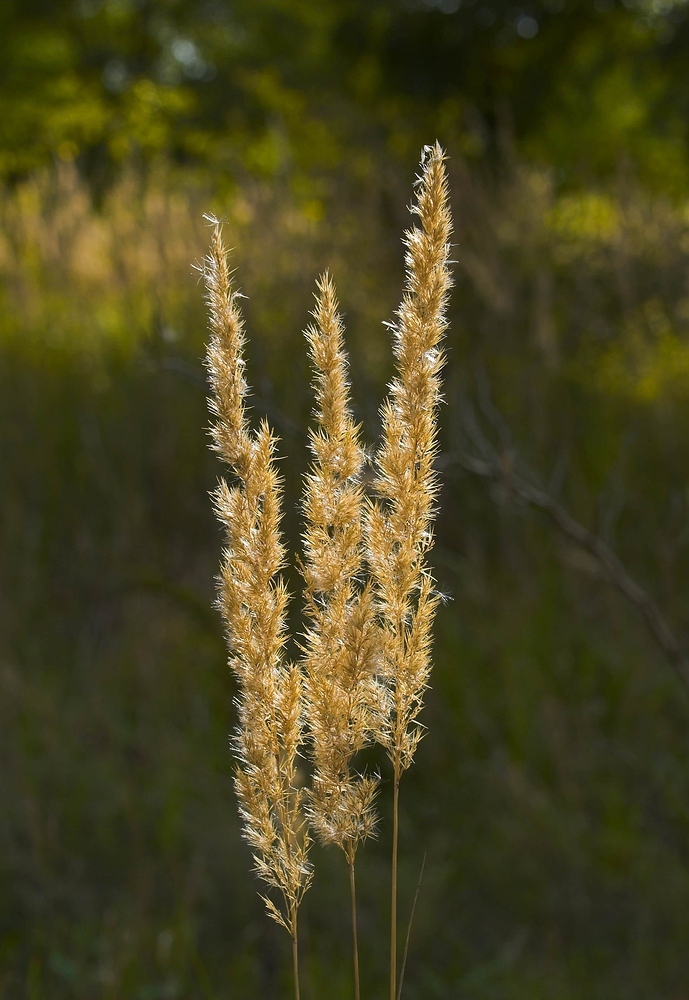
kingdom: Plantae
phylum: Tracheophyta
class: Liliopsida
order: Poales
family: Poaceae
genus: Calamagrostis
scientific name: Calamagrostis epigejos
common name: Wood small-reed
